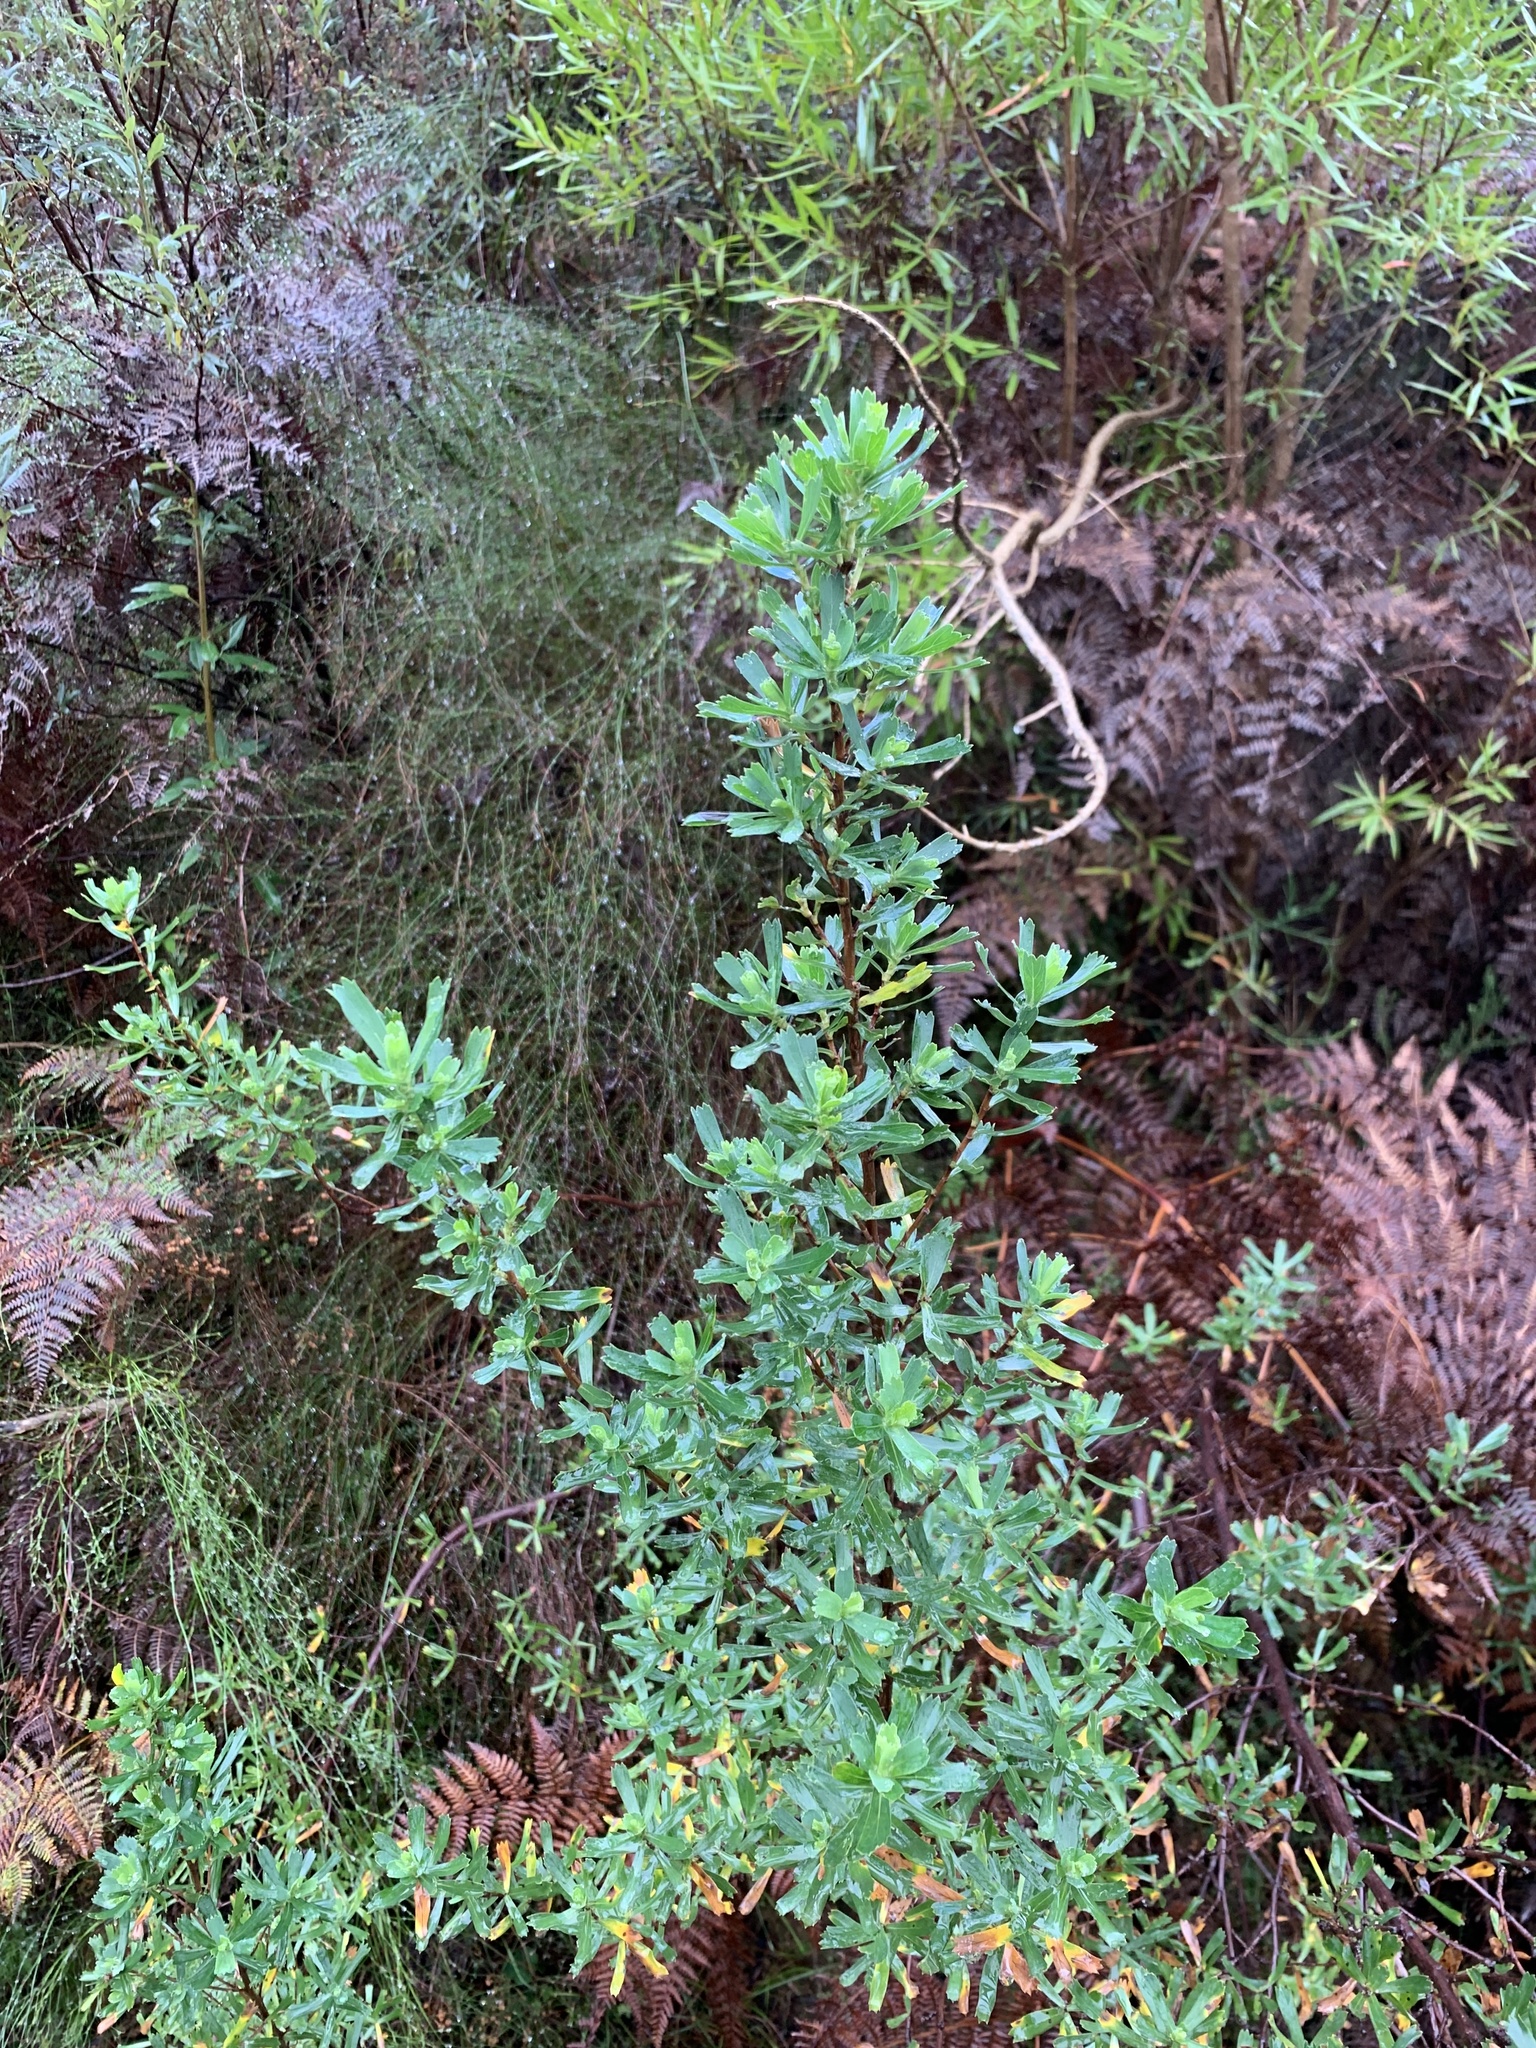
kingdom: Plantae
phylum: Tracheophyta
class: Magnoliopsida
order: Rosales
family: Rosaceae
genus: Cliffortia
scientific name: Cliffortia cuneata
